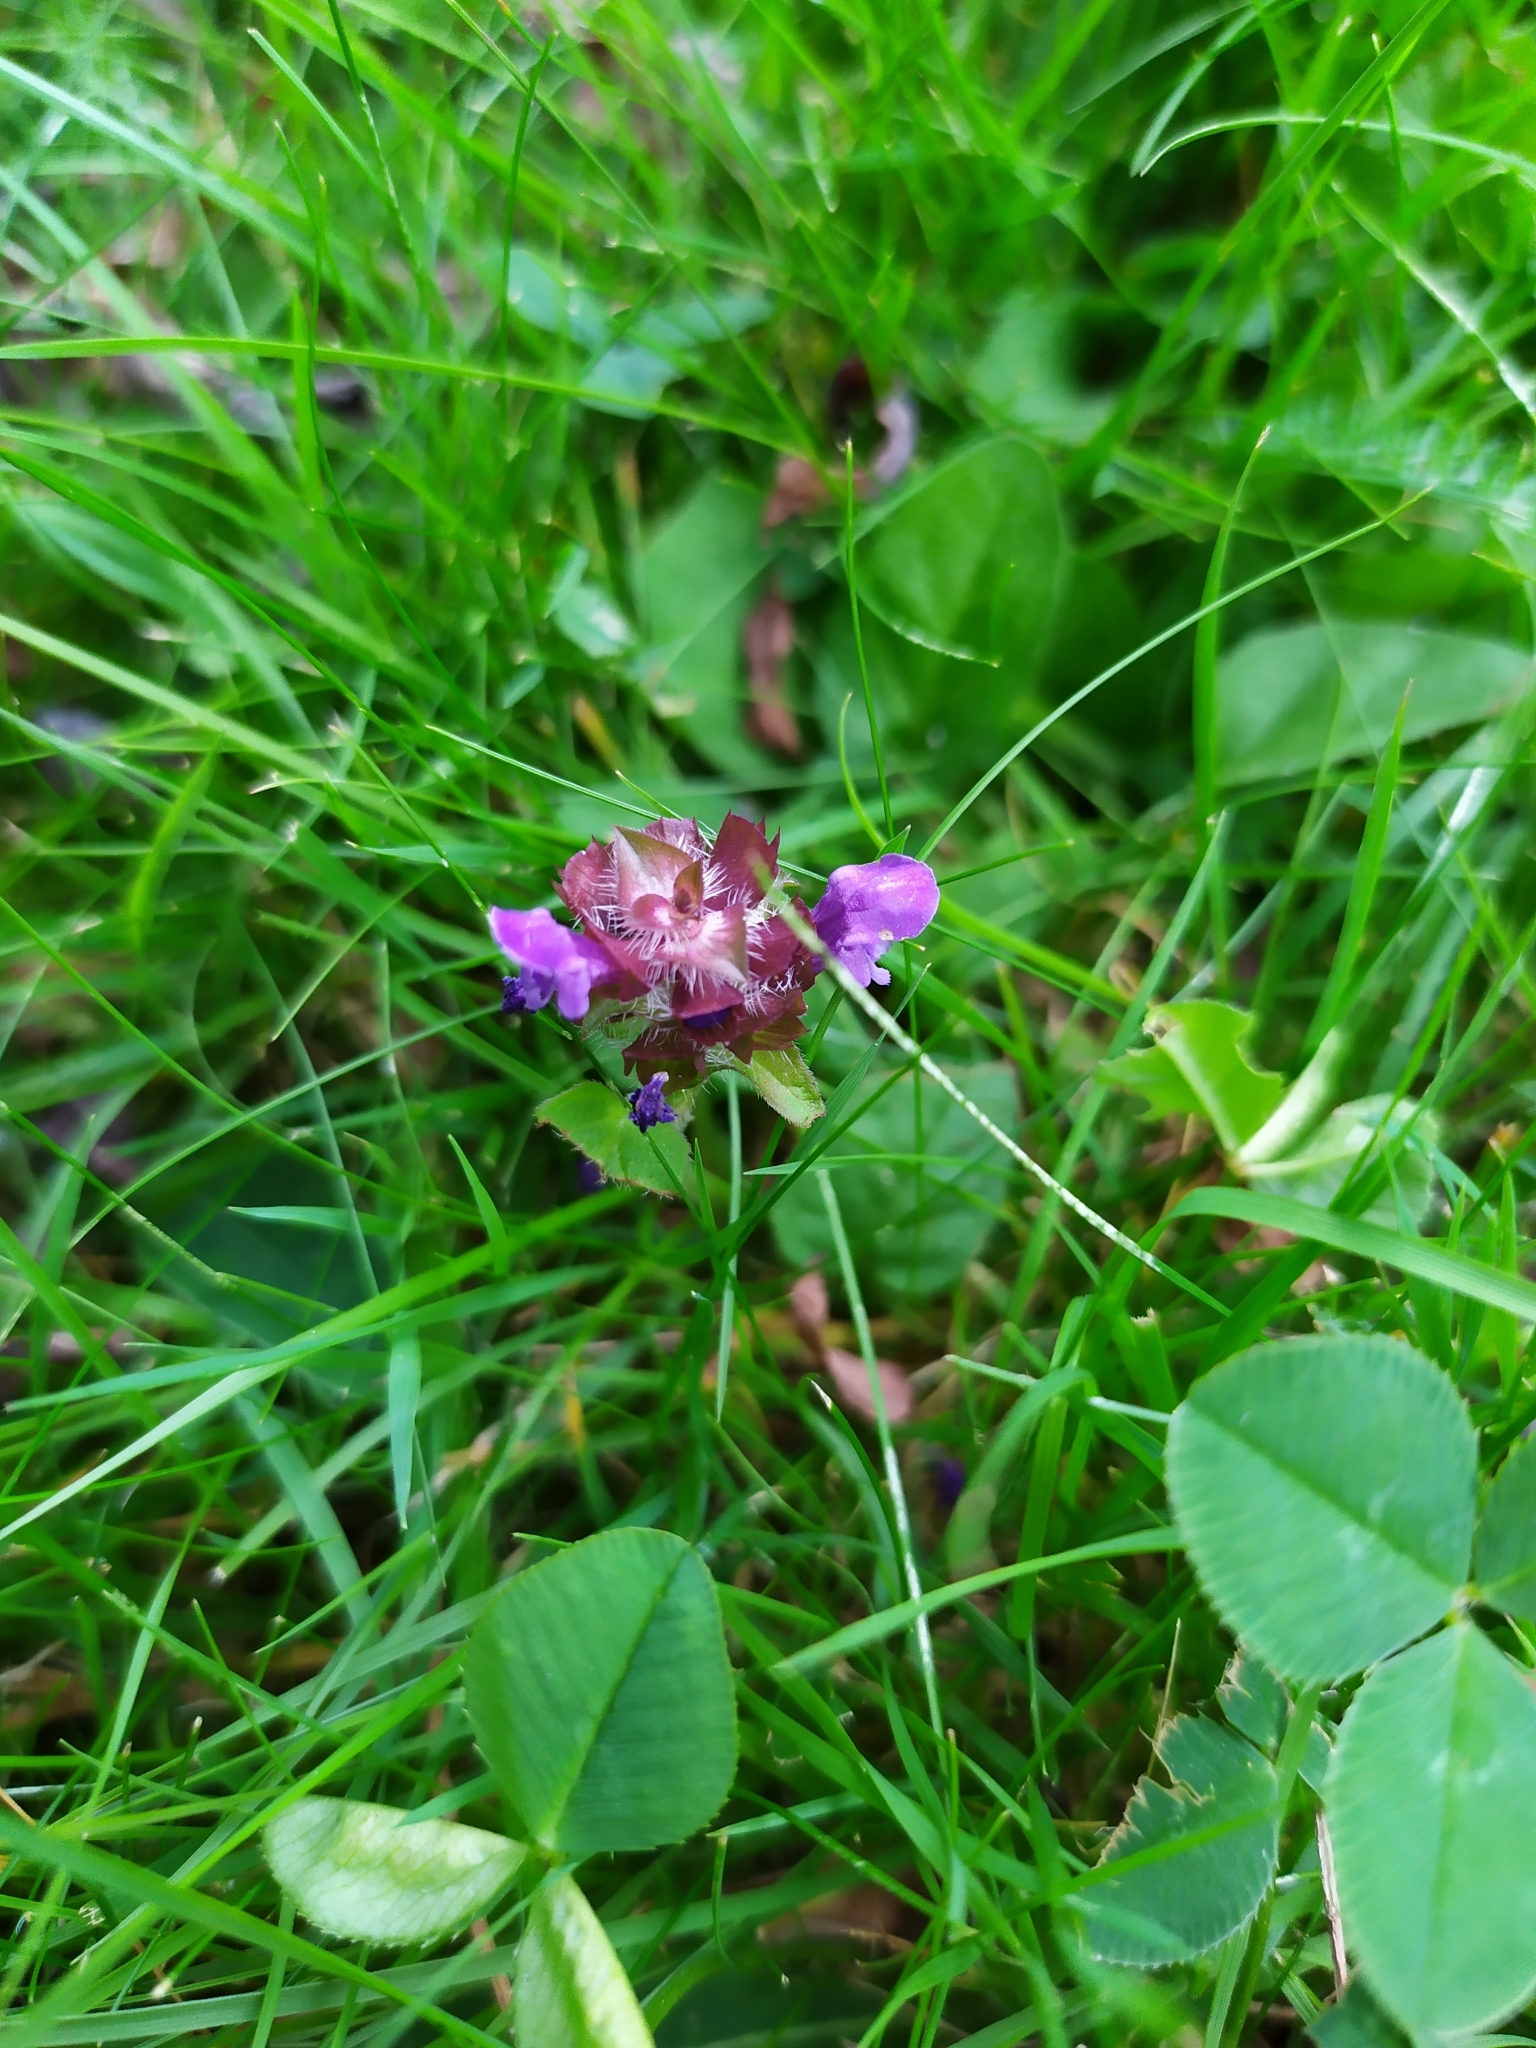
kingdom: Plantae
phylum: Tracheophyta
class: Magnoliopsida
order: Lamiales
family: Lamiaceae
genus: Prunella
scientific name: Prunella vulgaris
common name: Heal-all
